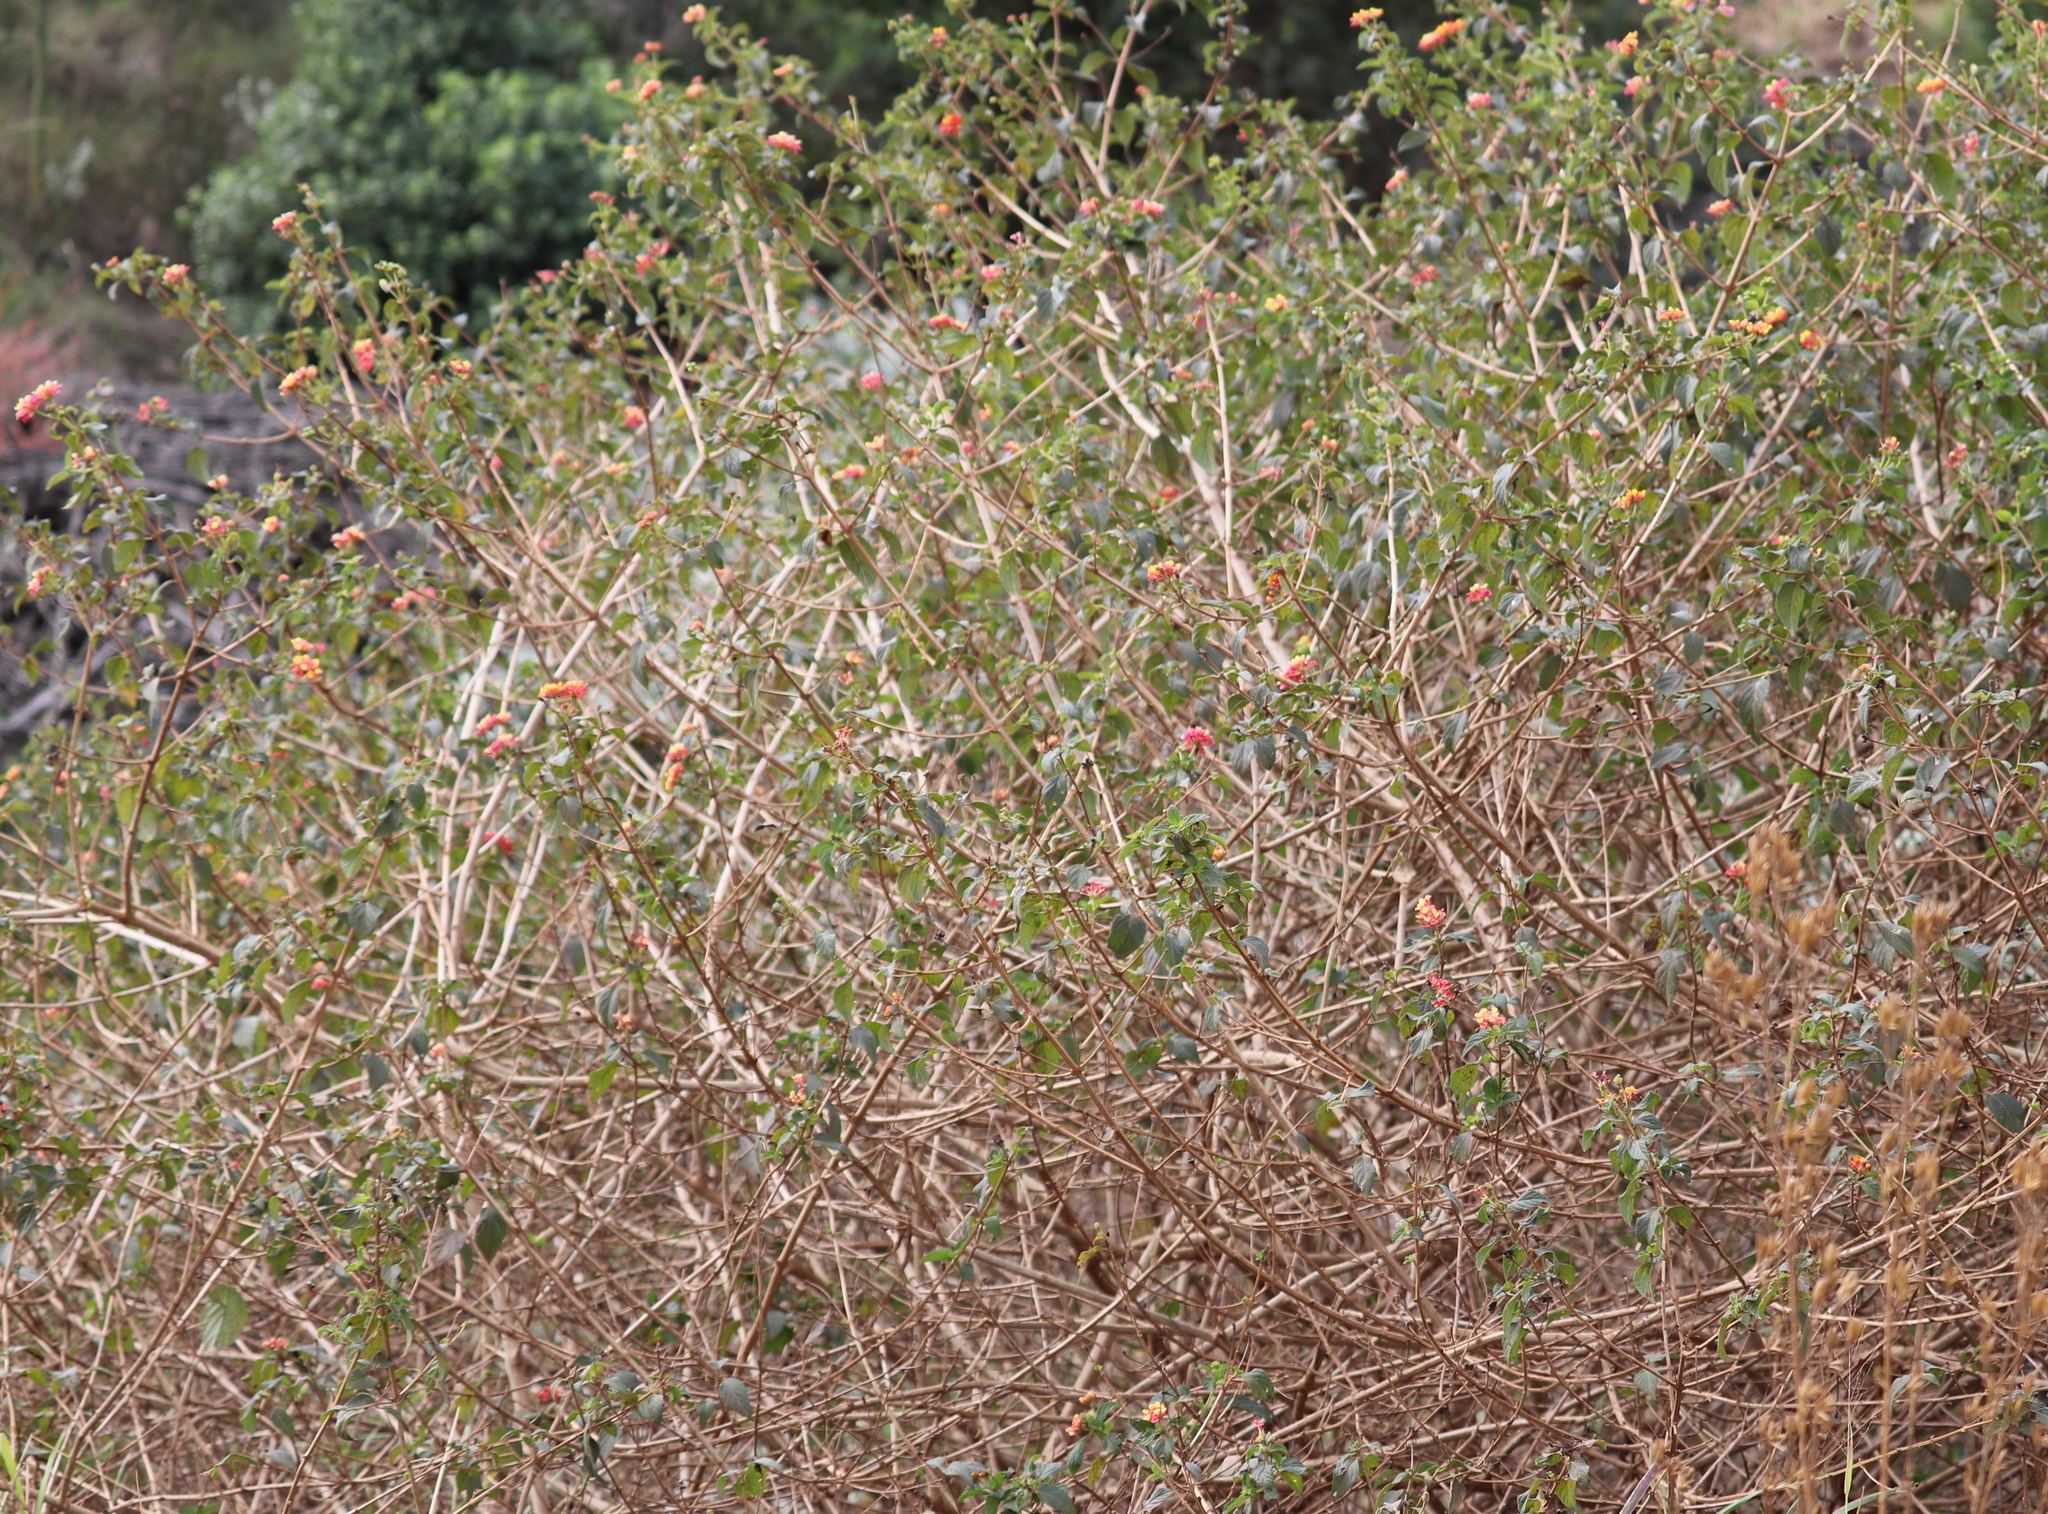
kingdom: Plantae
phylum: Tracheophyta
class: Magnoliopsida
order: Lamiales
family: Verbenaceae
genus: Lantana
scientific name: Lantana camara
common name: Lantana
